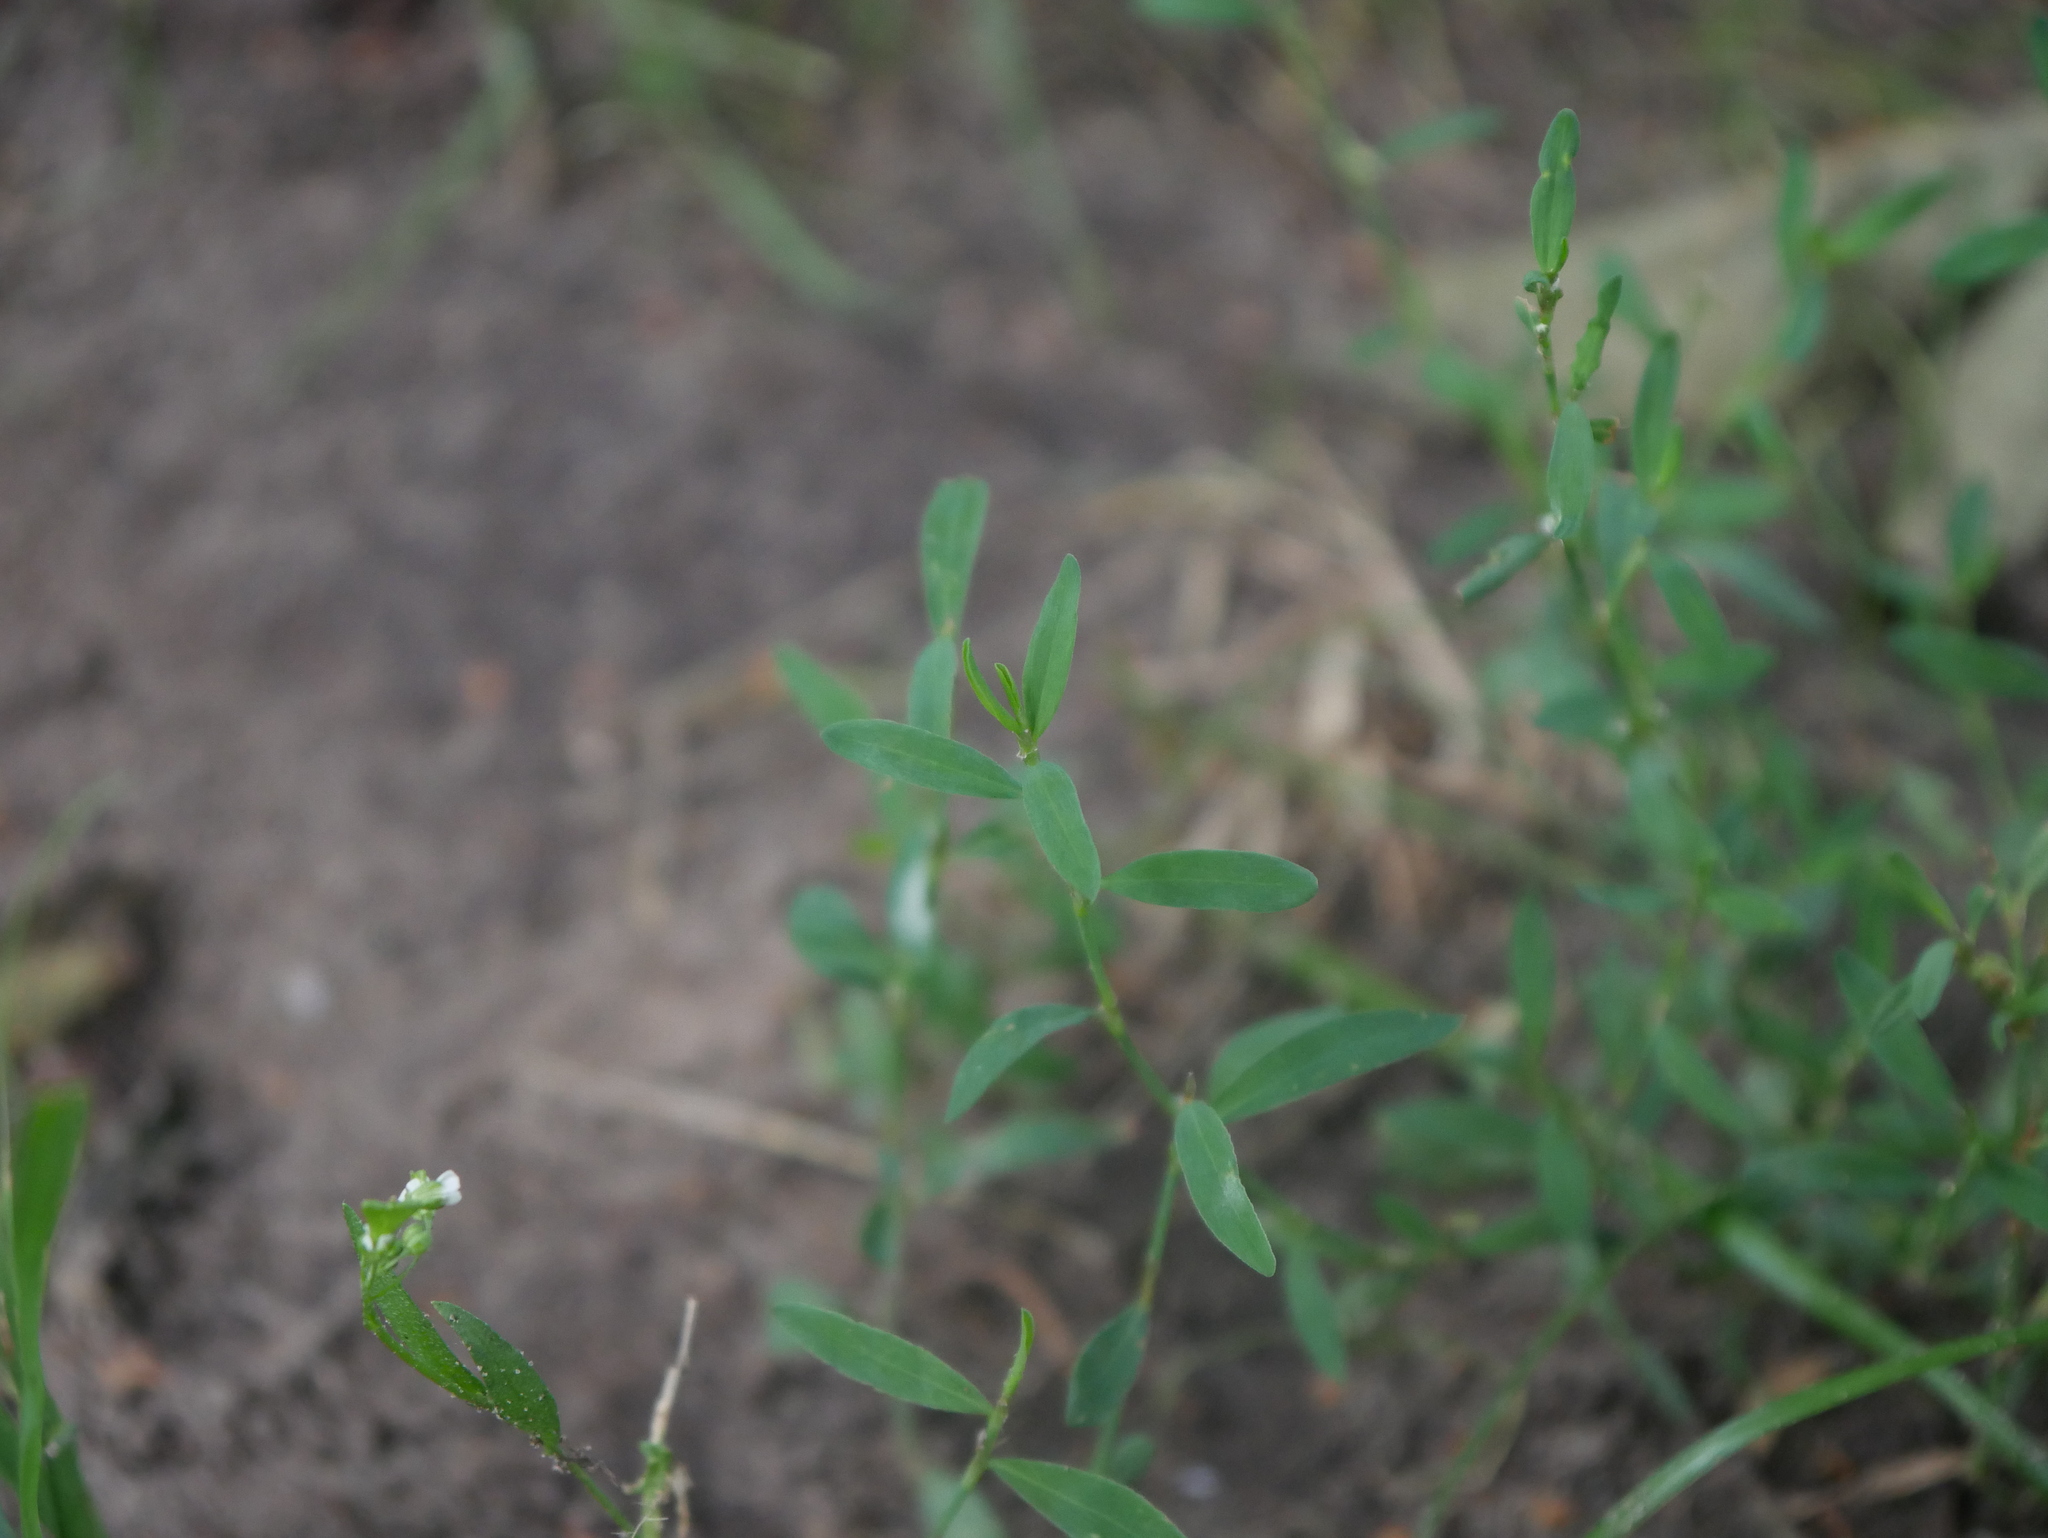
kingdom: Plantae
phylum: Tracheophyta
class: Magnoliopsida
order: Caryophyllales
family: Polygonaceae
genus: Polygonum
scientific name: Polygonum aviculare
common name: Prostrate knotweed
